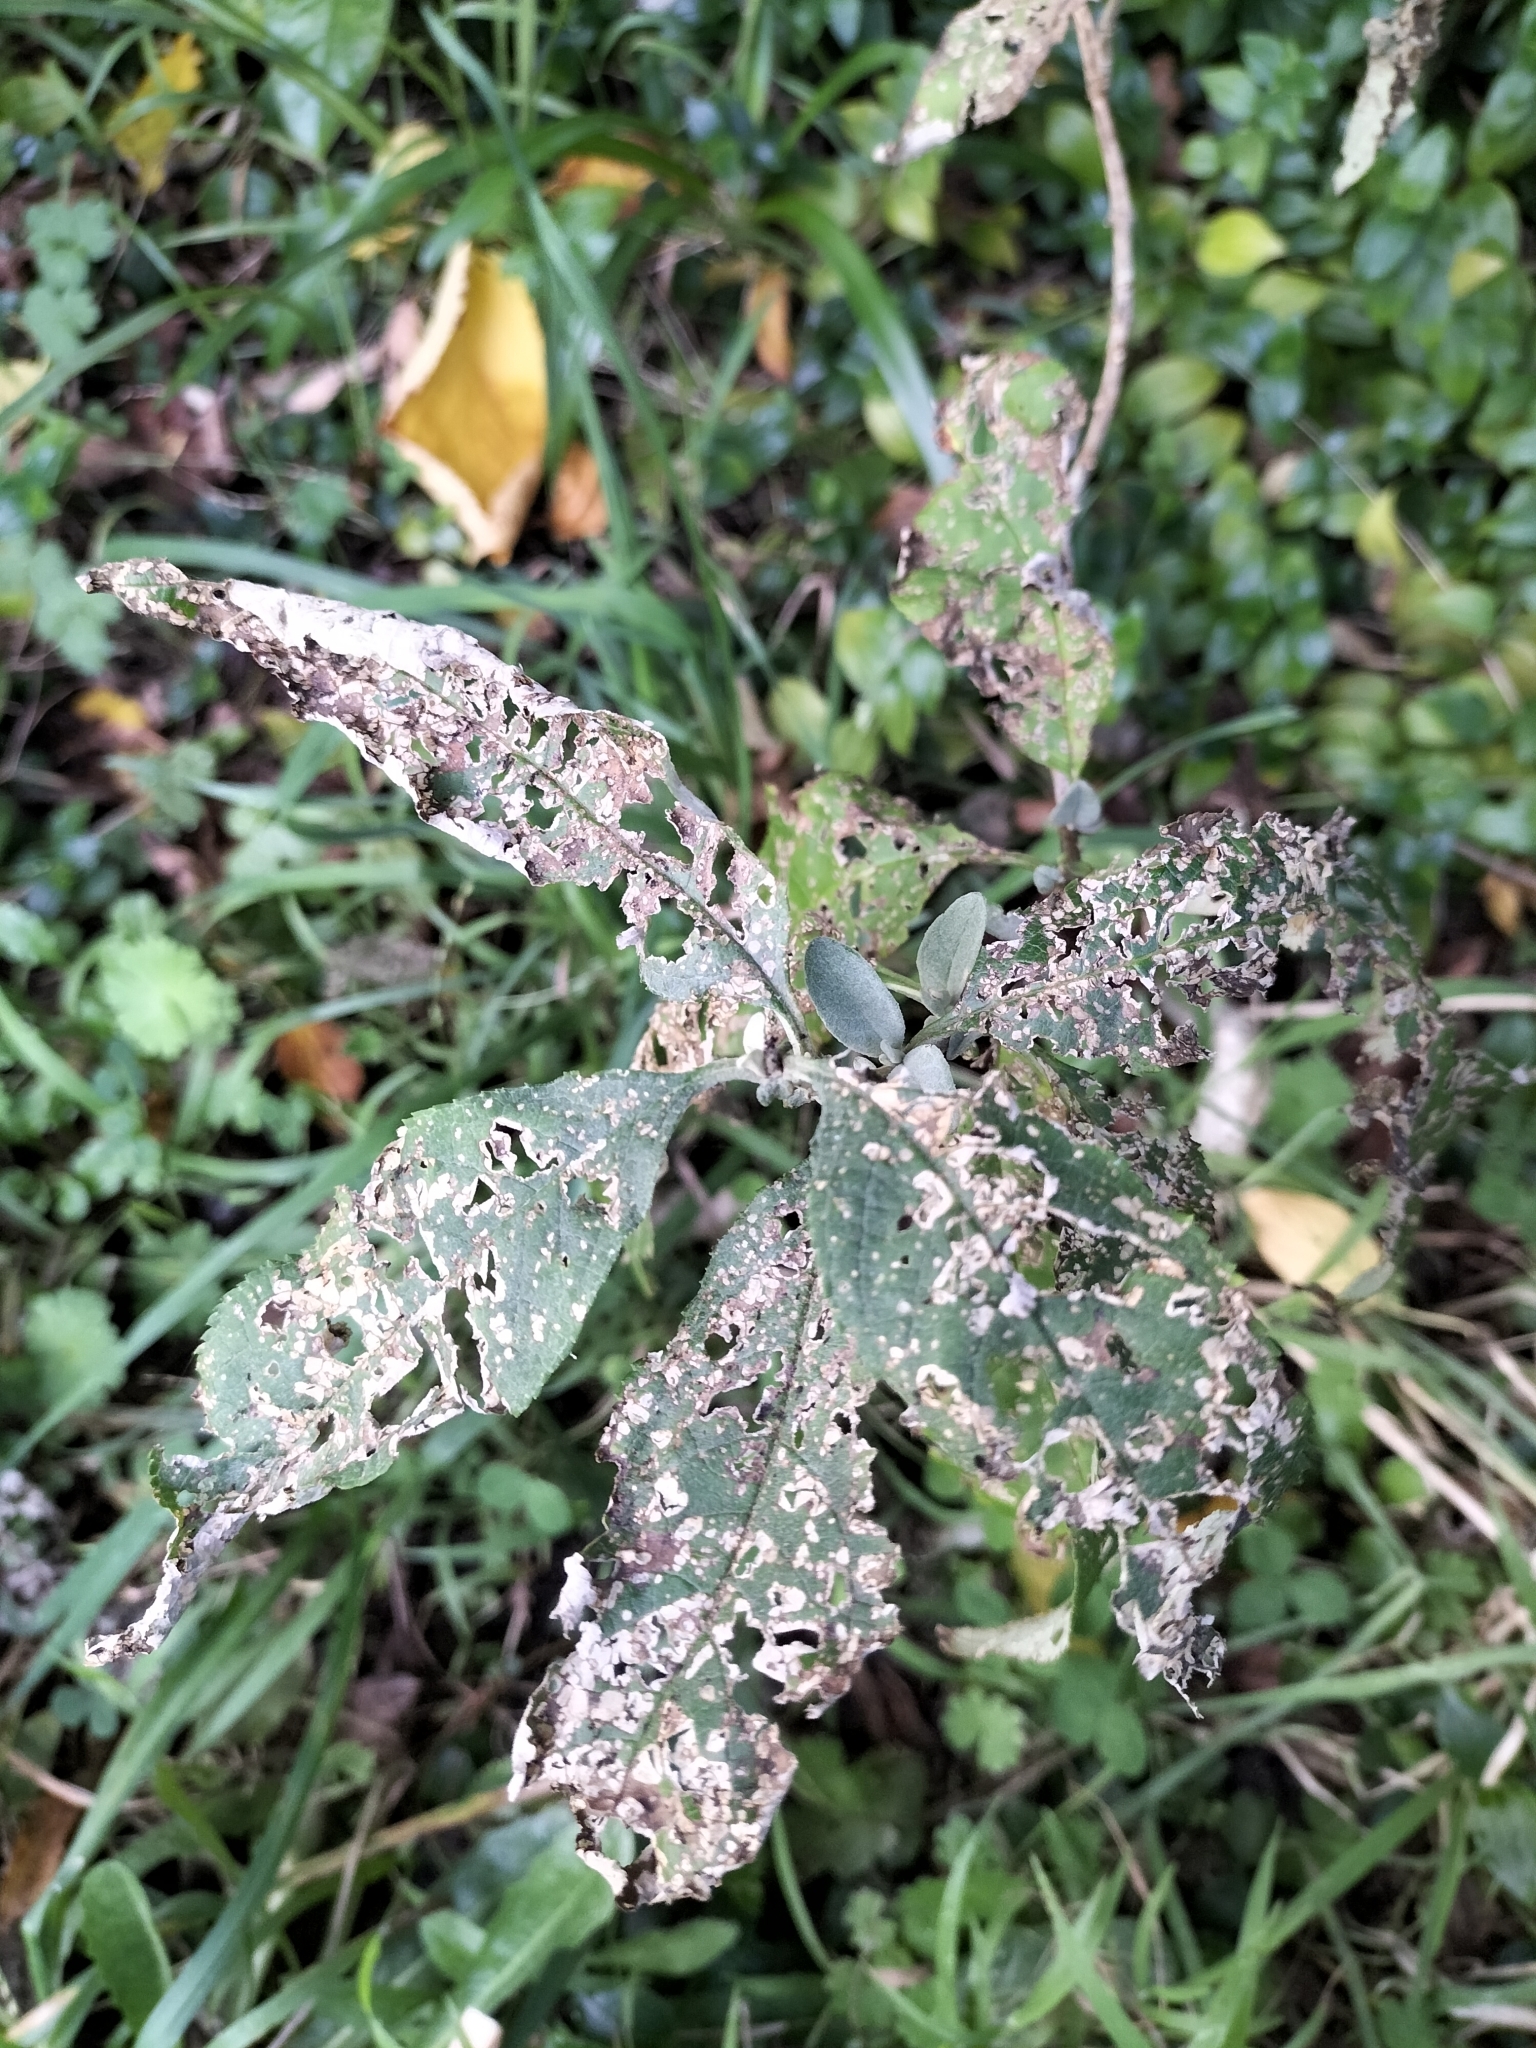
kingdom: Animalia
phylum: Arthropoda
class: Insecta
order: Coleoptera
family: Curculionidae
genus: Cleopus
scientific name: Cleopus japonicus
